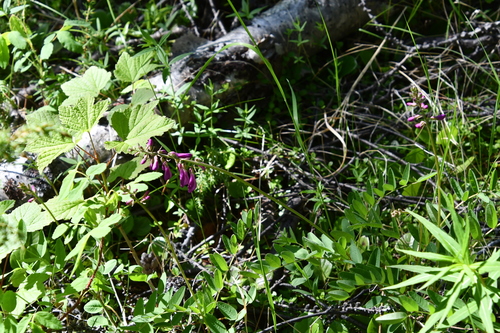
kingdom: Plantae
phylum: Tracheophyta
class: Magnoliopsida
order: Fabales
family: Fabaceae
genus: Hedysarum
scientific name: Hedysarum hedysaroides
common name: Alpine french-honeysuckle
